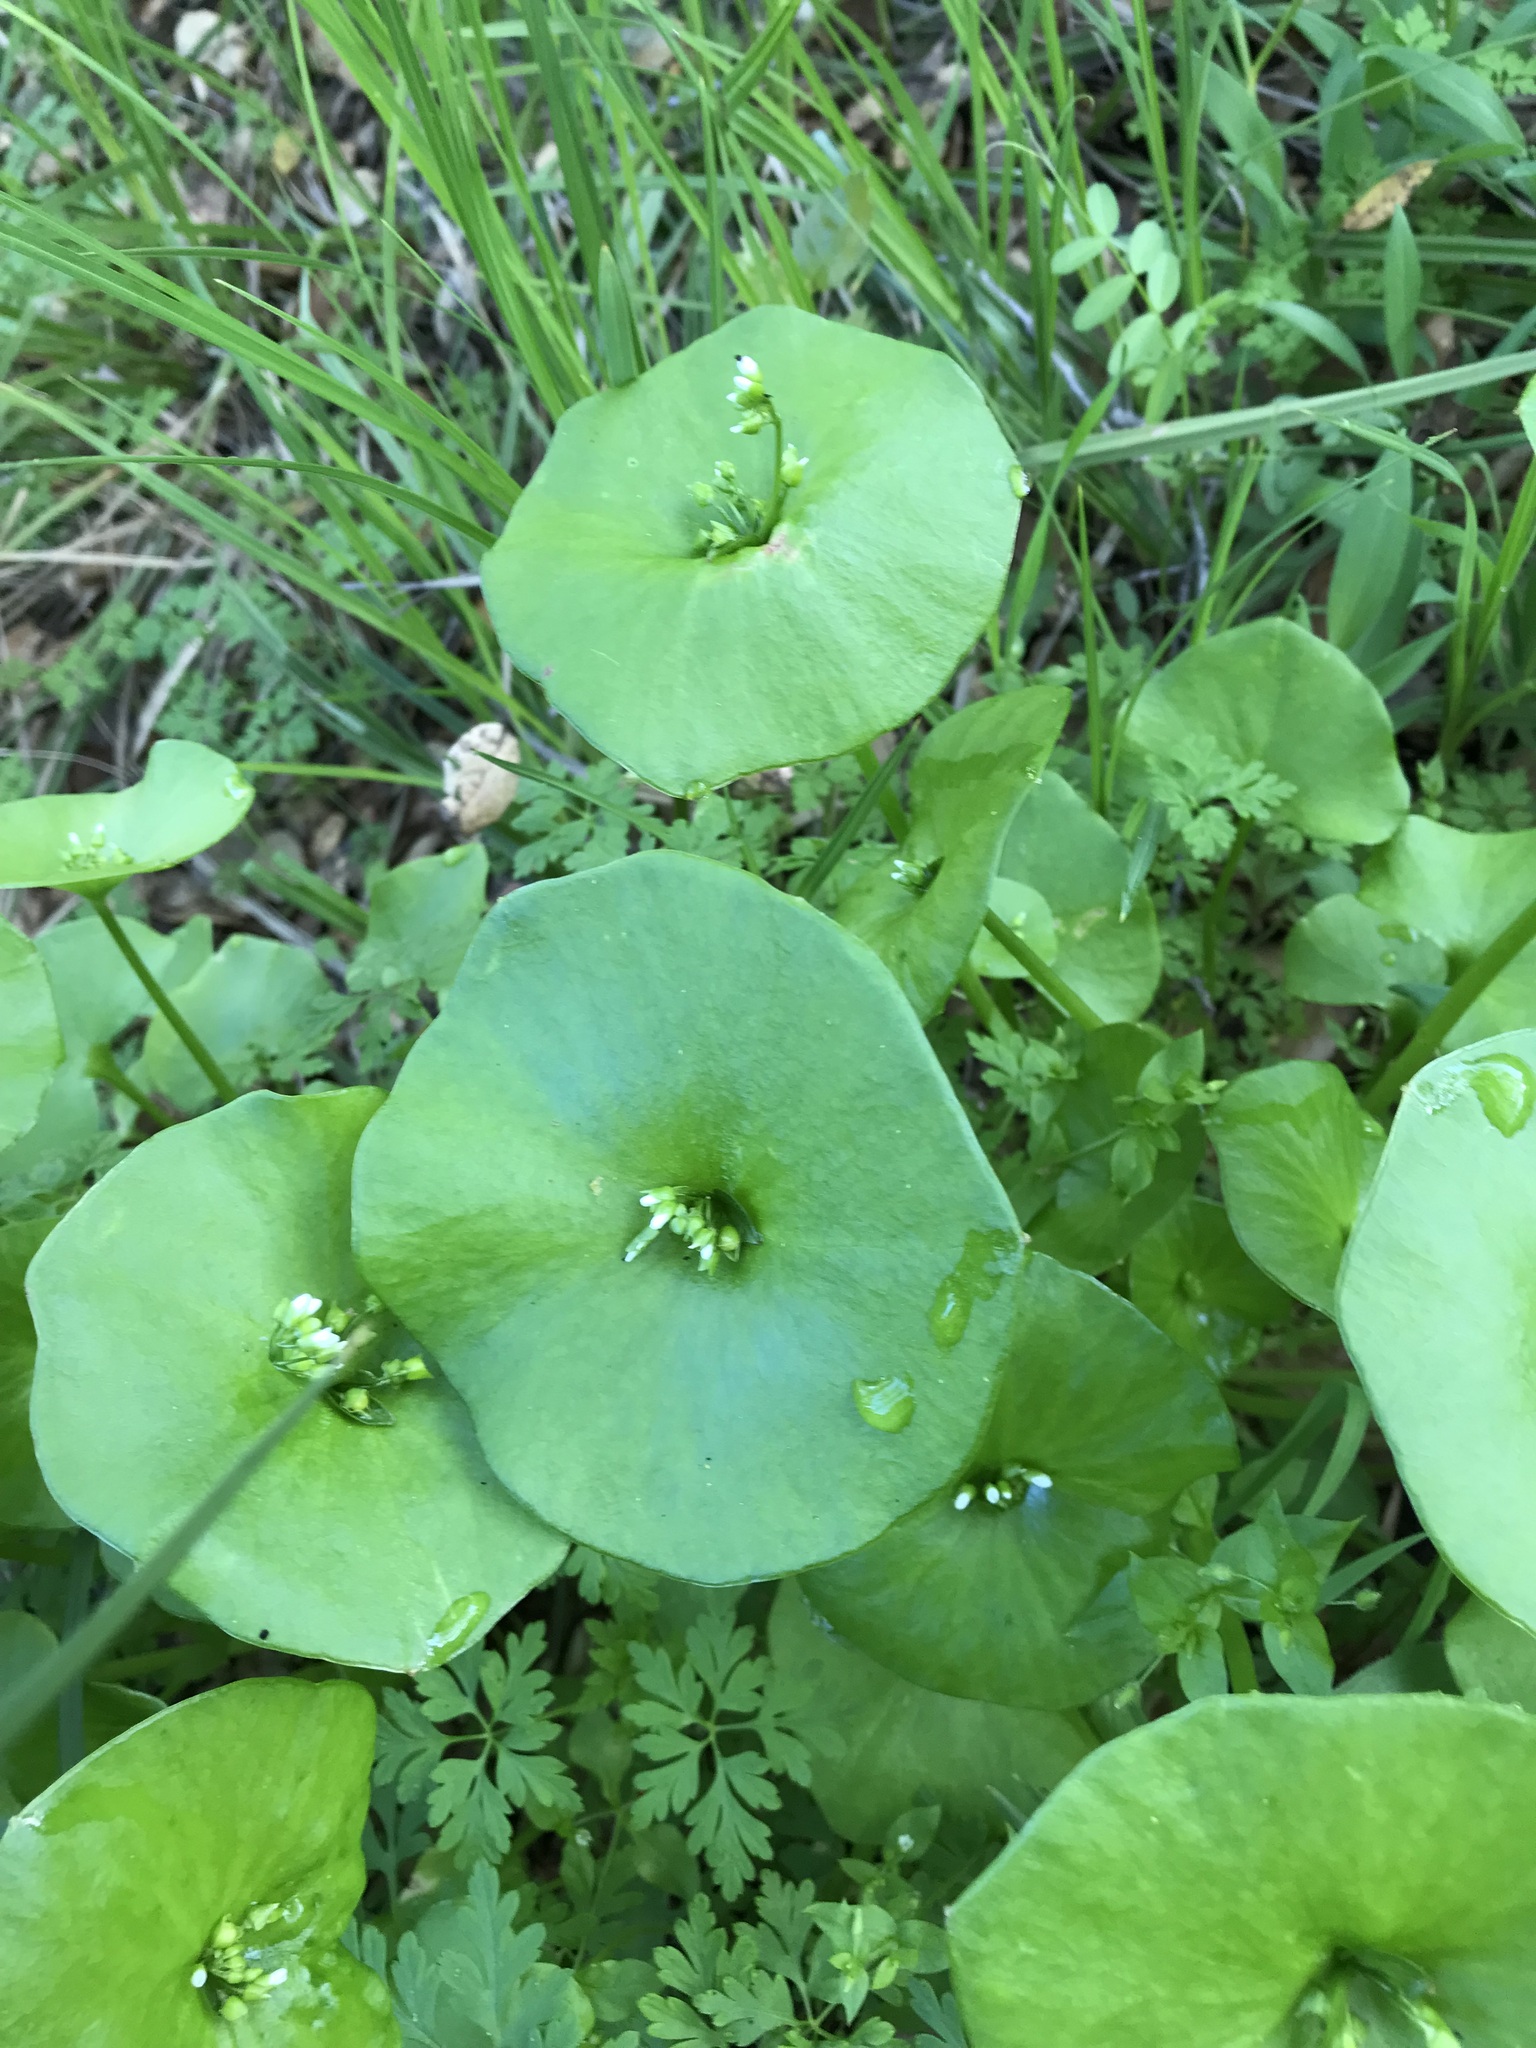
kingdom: Plantae
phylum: Tracheophyta
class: Magnoliopsida
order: Caryophyllales
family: Montiaceae
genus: Claytonia
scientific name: Claytonia perfoliata
